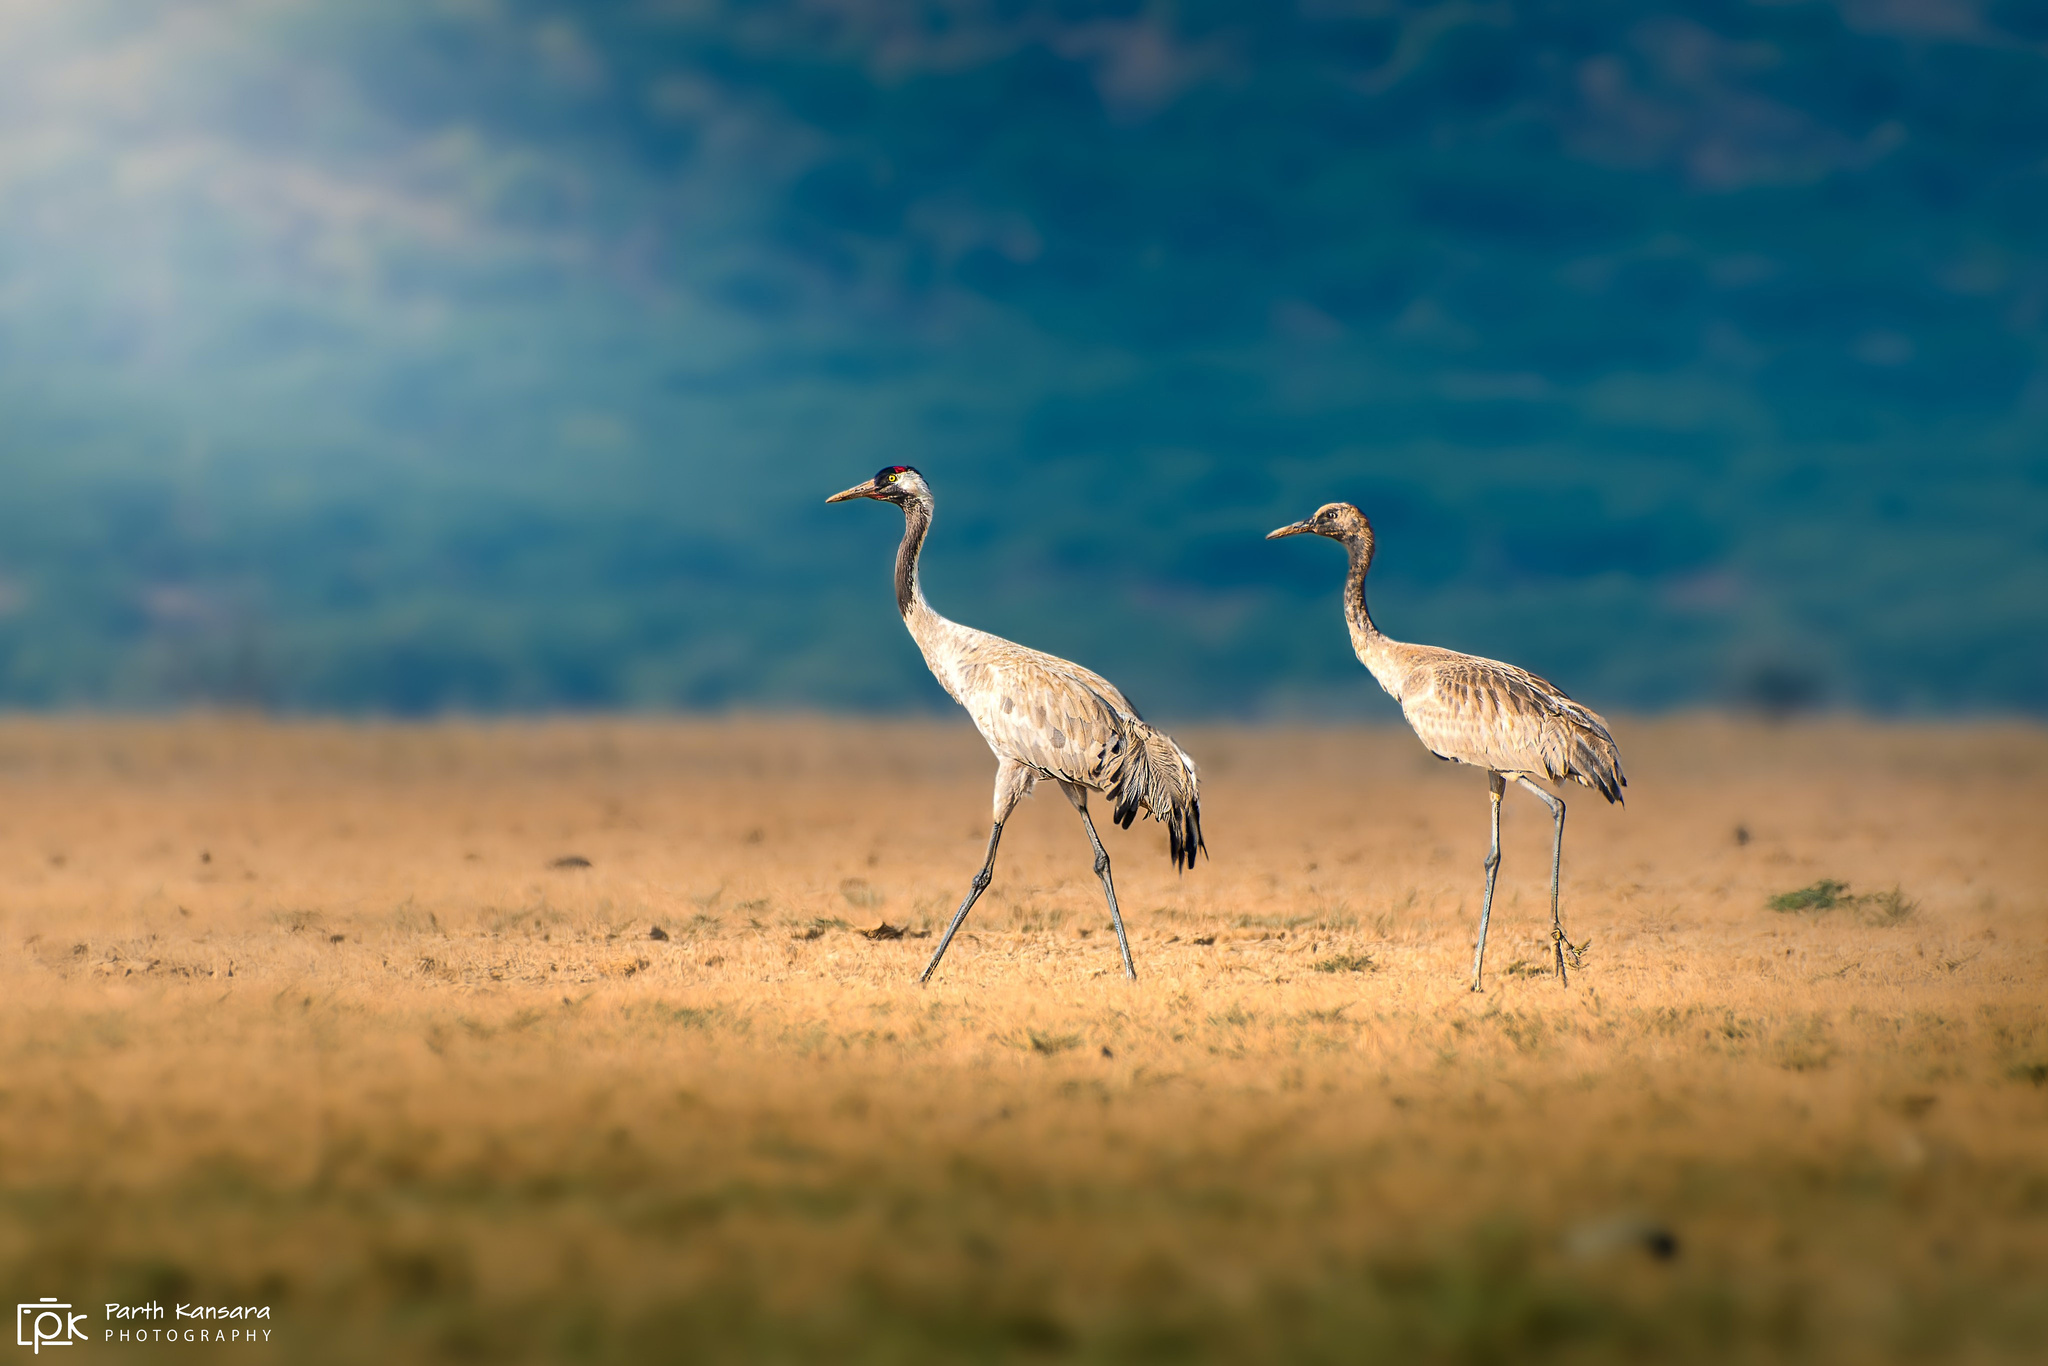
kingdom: Animalia
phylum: Chordata
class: Aves
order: Gruiformes
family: Gruidae
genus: Grus
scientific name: Grus grus
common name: Common crane
